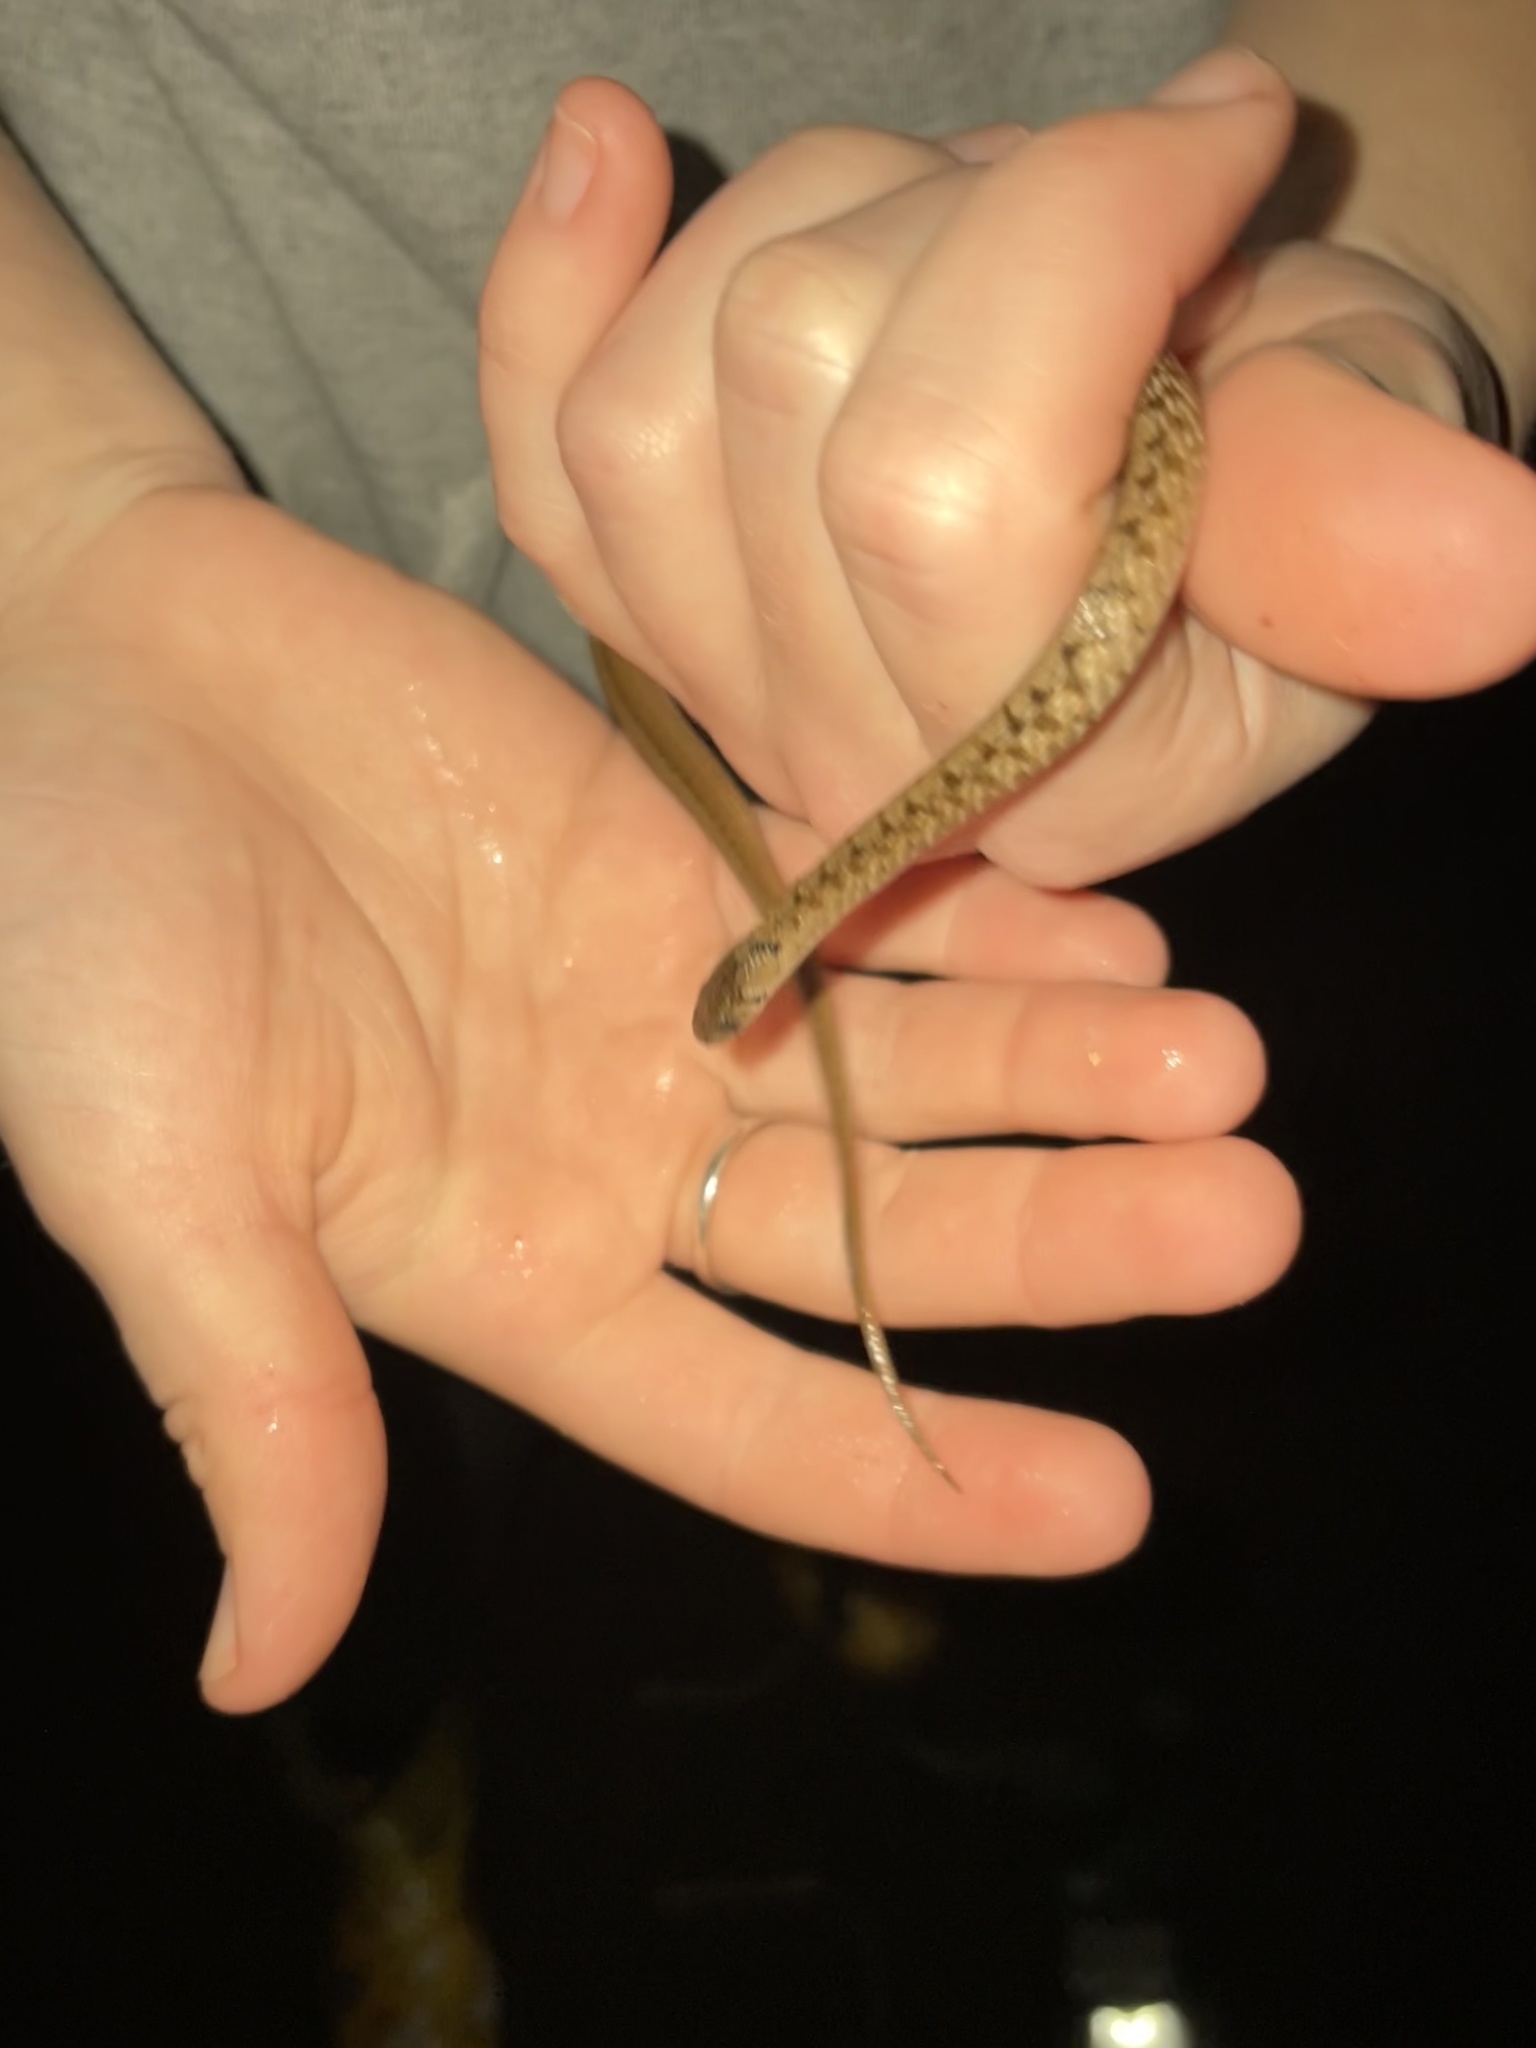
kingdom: Animalia
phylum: Chordata
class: Squamata
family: Colubridae
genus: Storeria
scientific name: Storeria dekayi
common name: (dekay’s) brown snake
